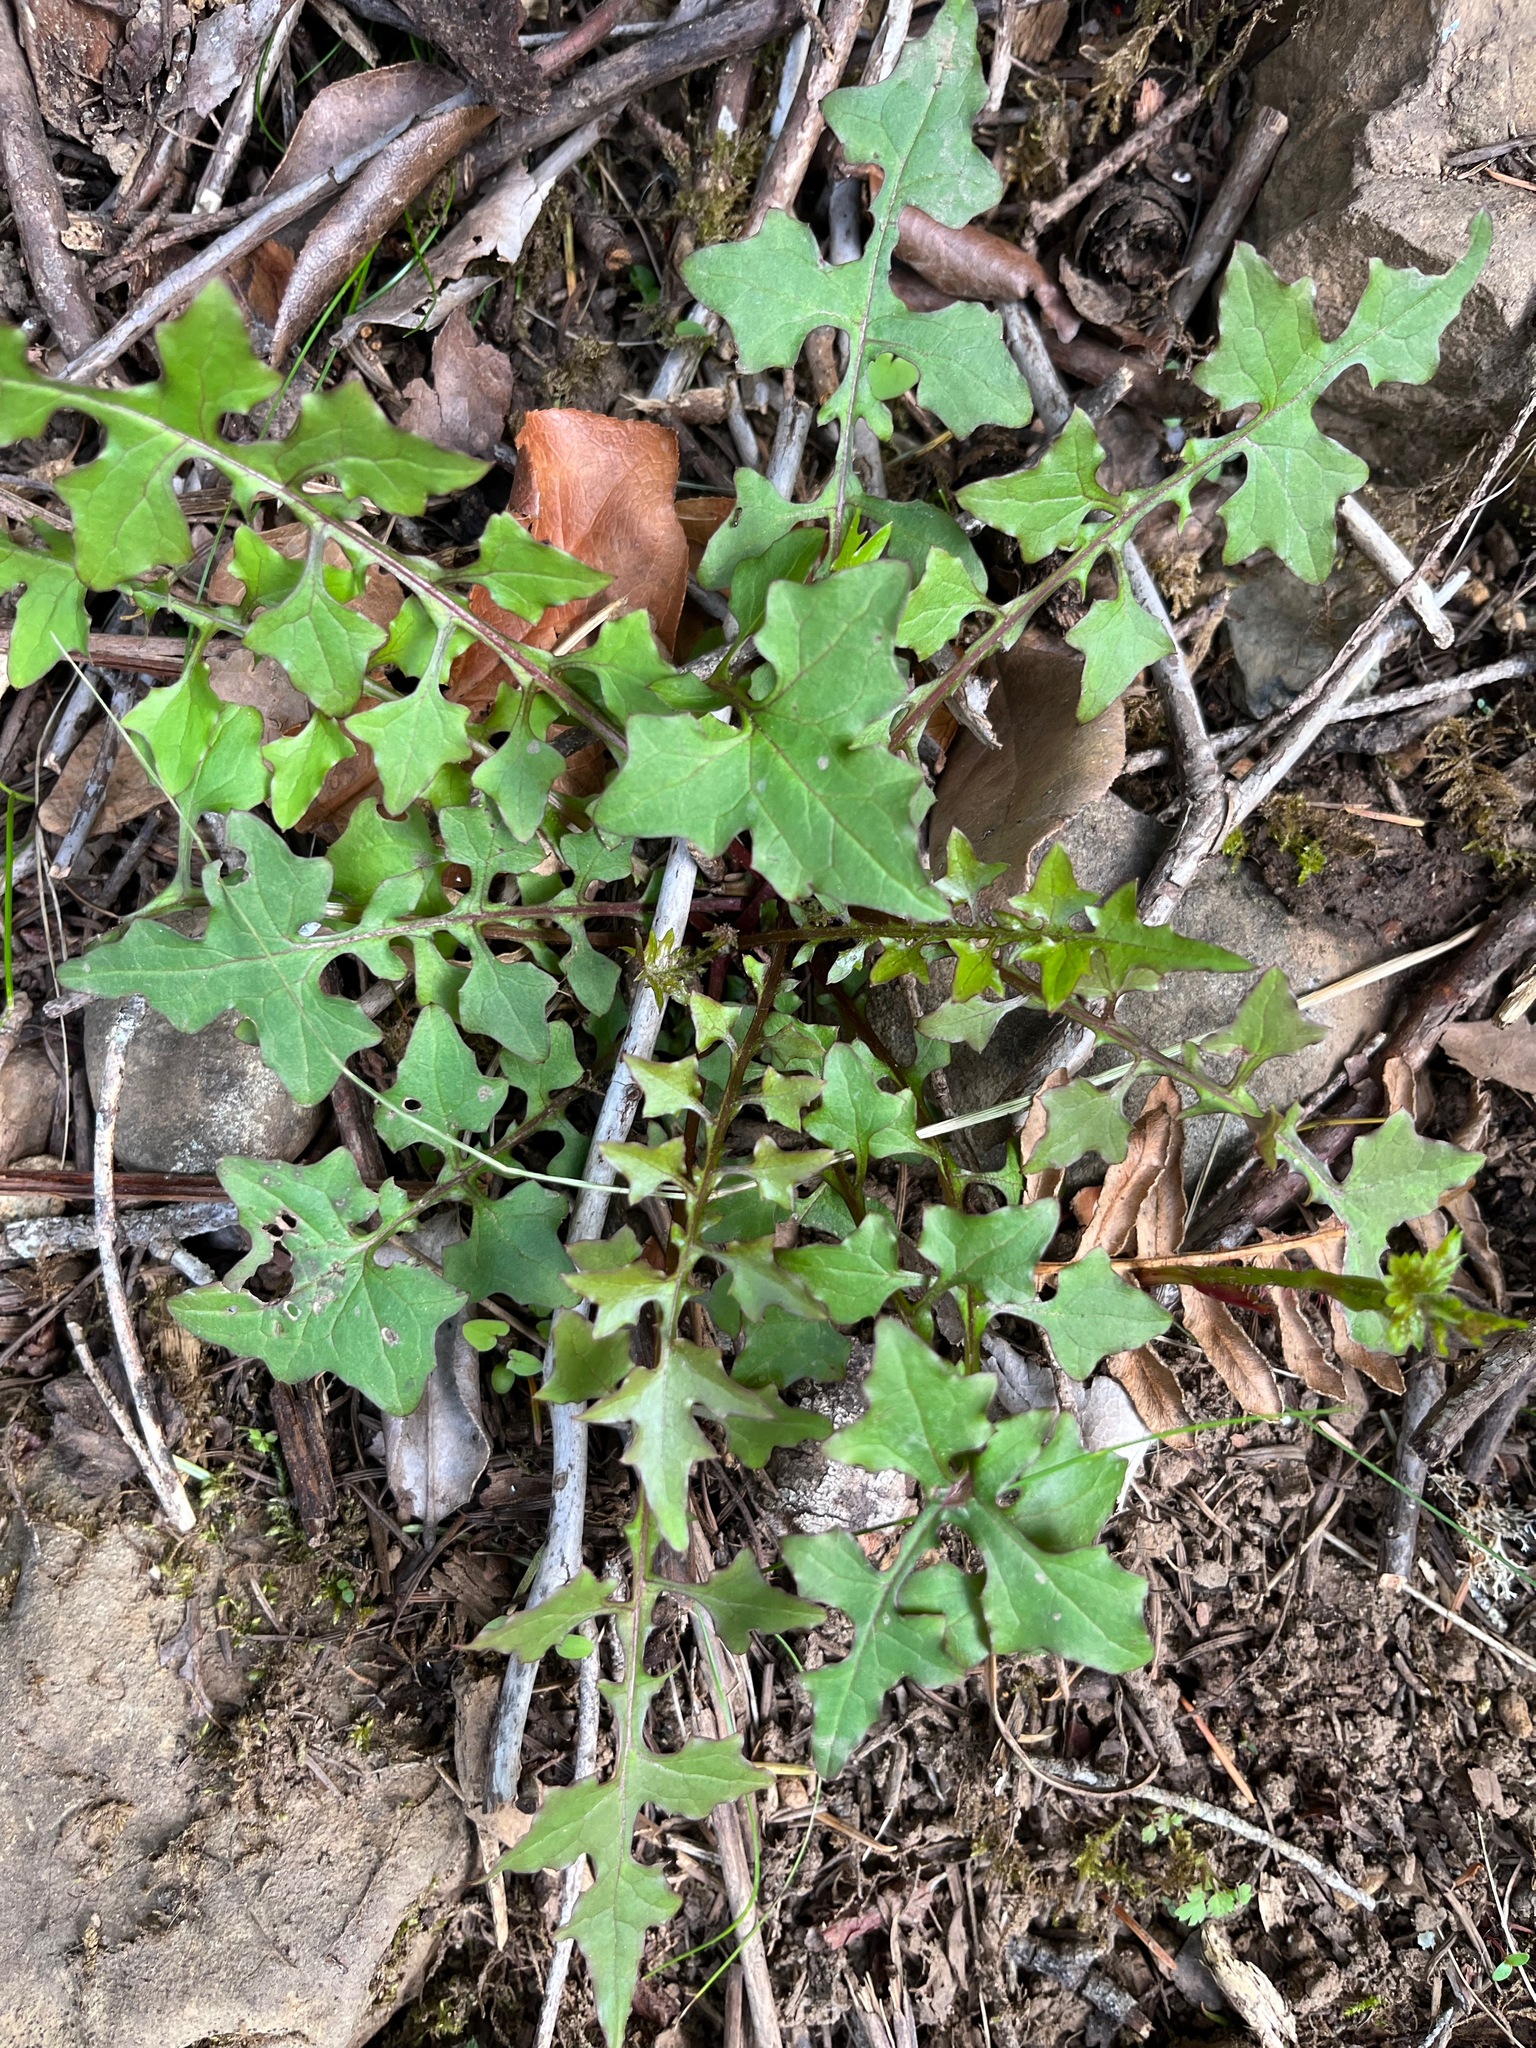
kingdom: Plantae
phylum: Tracheophyta
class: Magnoliopsida
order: Asterales
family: Asteraceae
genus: Mycelis
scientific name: Mycelis muralis
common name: Wall lettuce
